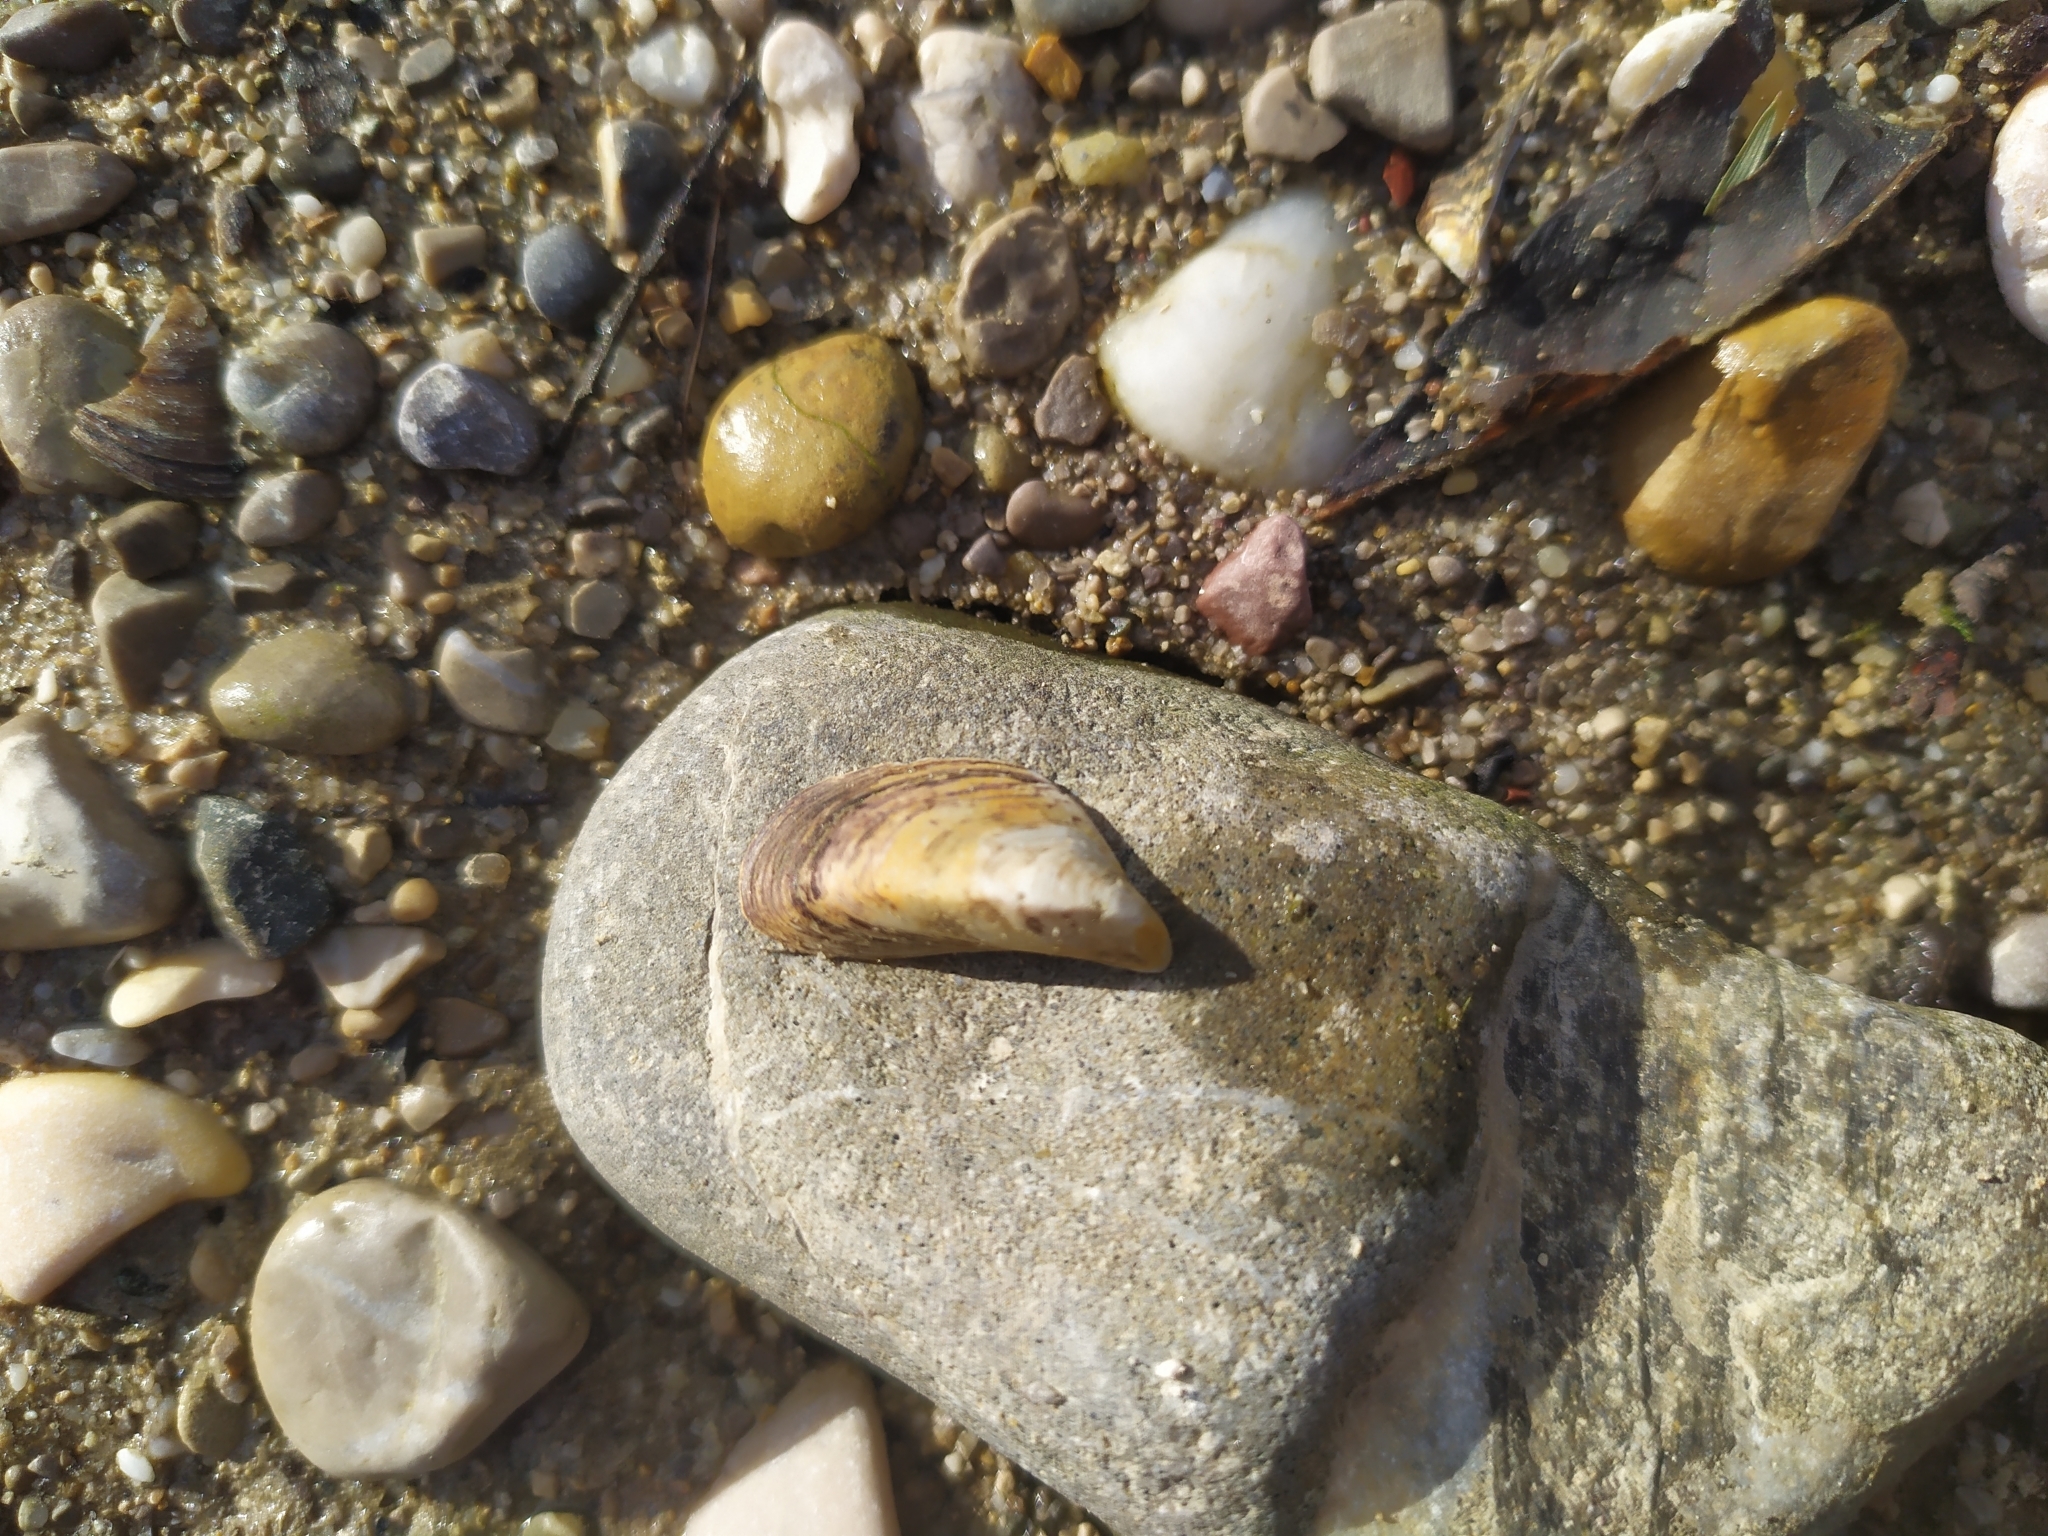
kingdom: Animalia
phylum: Mollusca
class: Bivalvia
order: Myida
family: Dreissenidae
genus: Dreissena
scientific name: Dreissena polymorpha
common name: Zebra mussel
